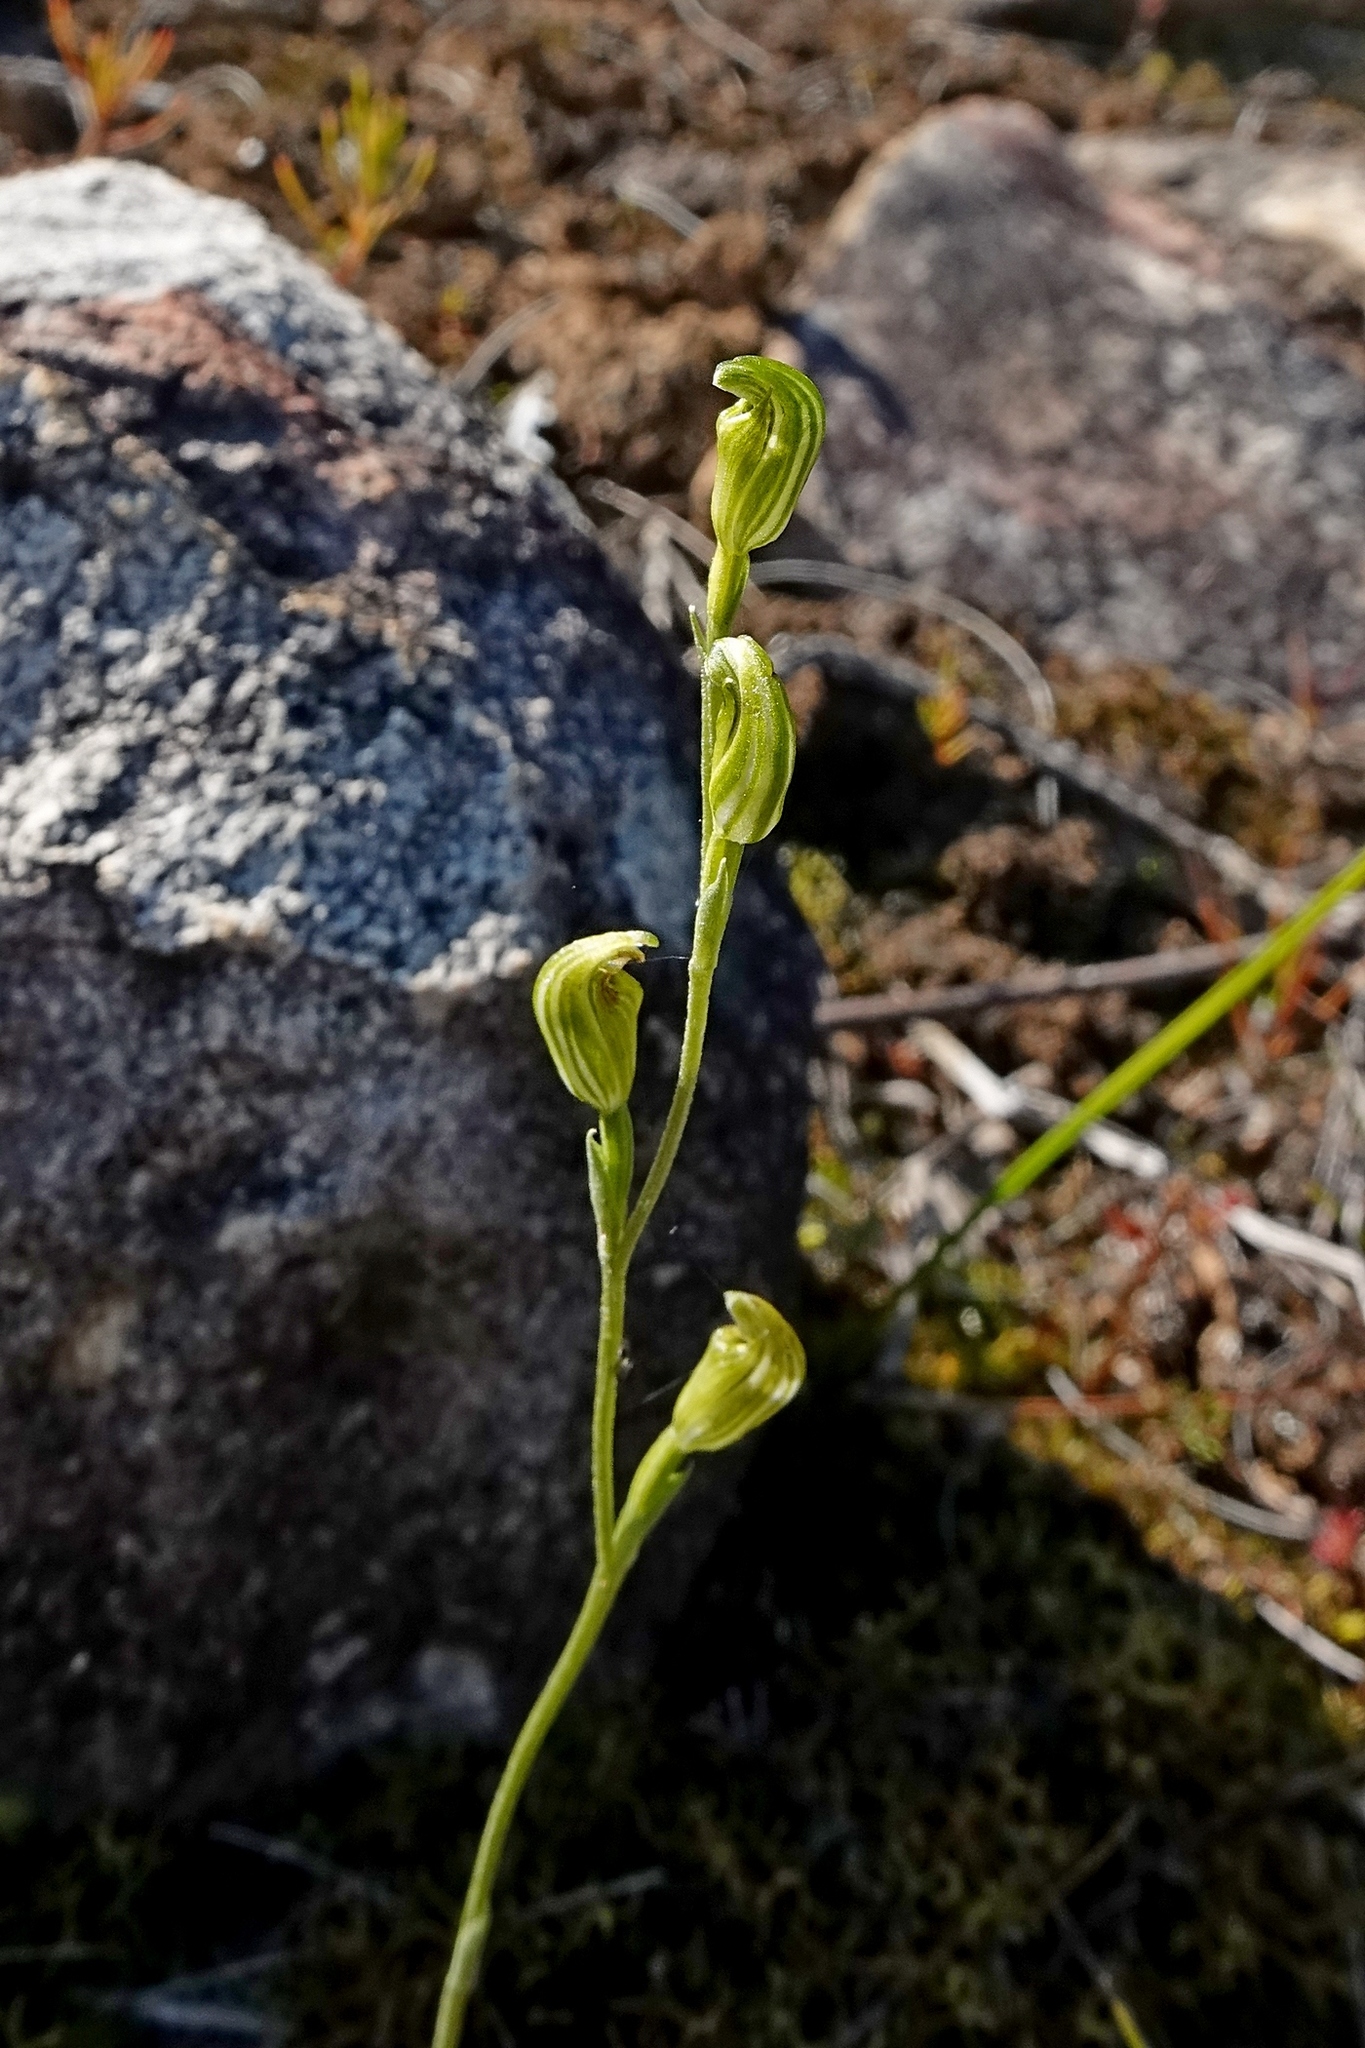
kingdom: Plantae
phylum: Tracheophyta
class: Liliopsida
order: Asparagales
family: Orchidaceae
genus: Pterostylis
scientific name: Pterostylis parviflora
